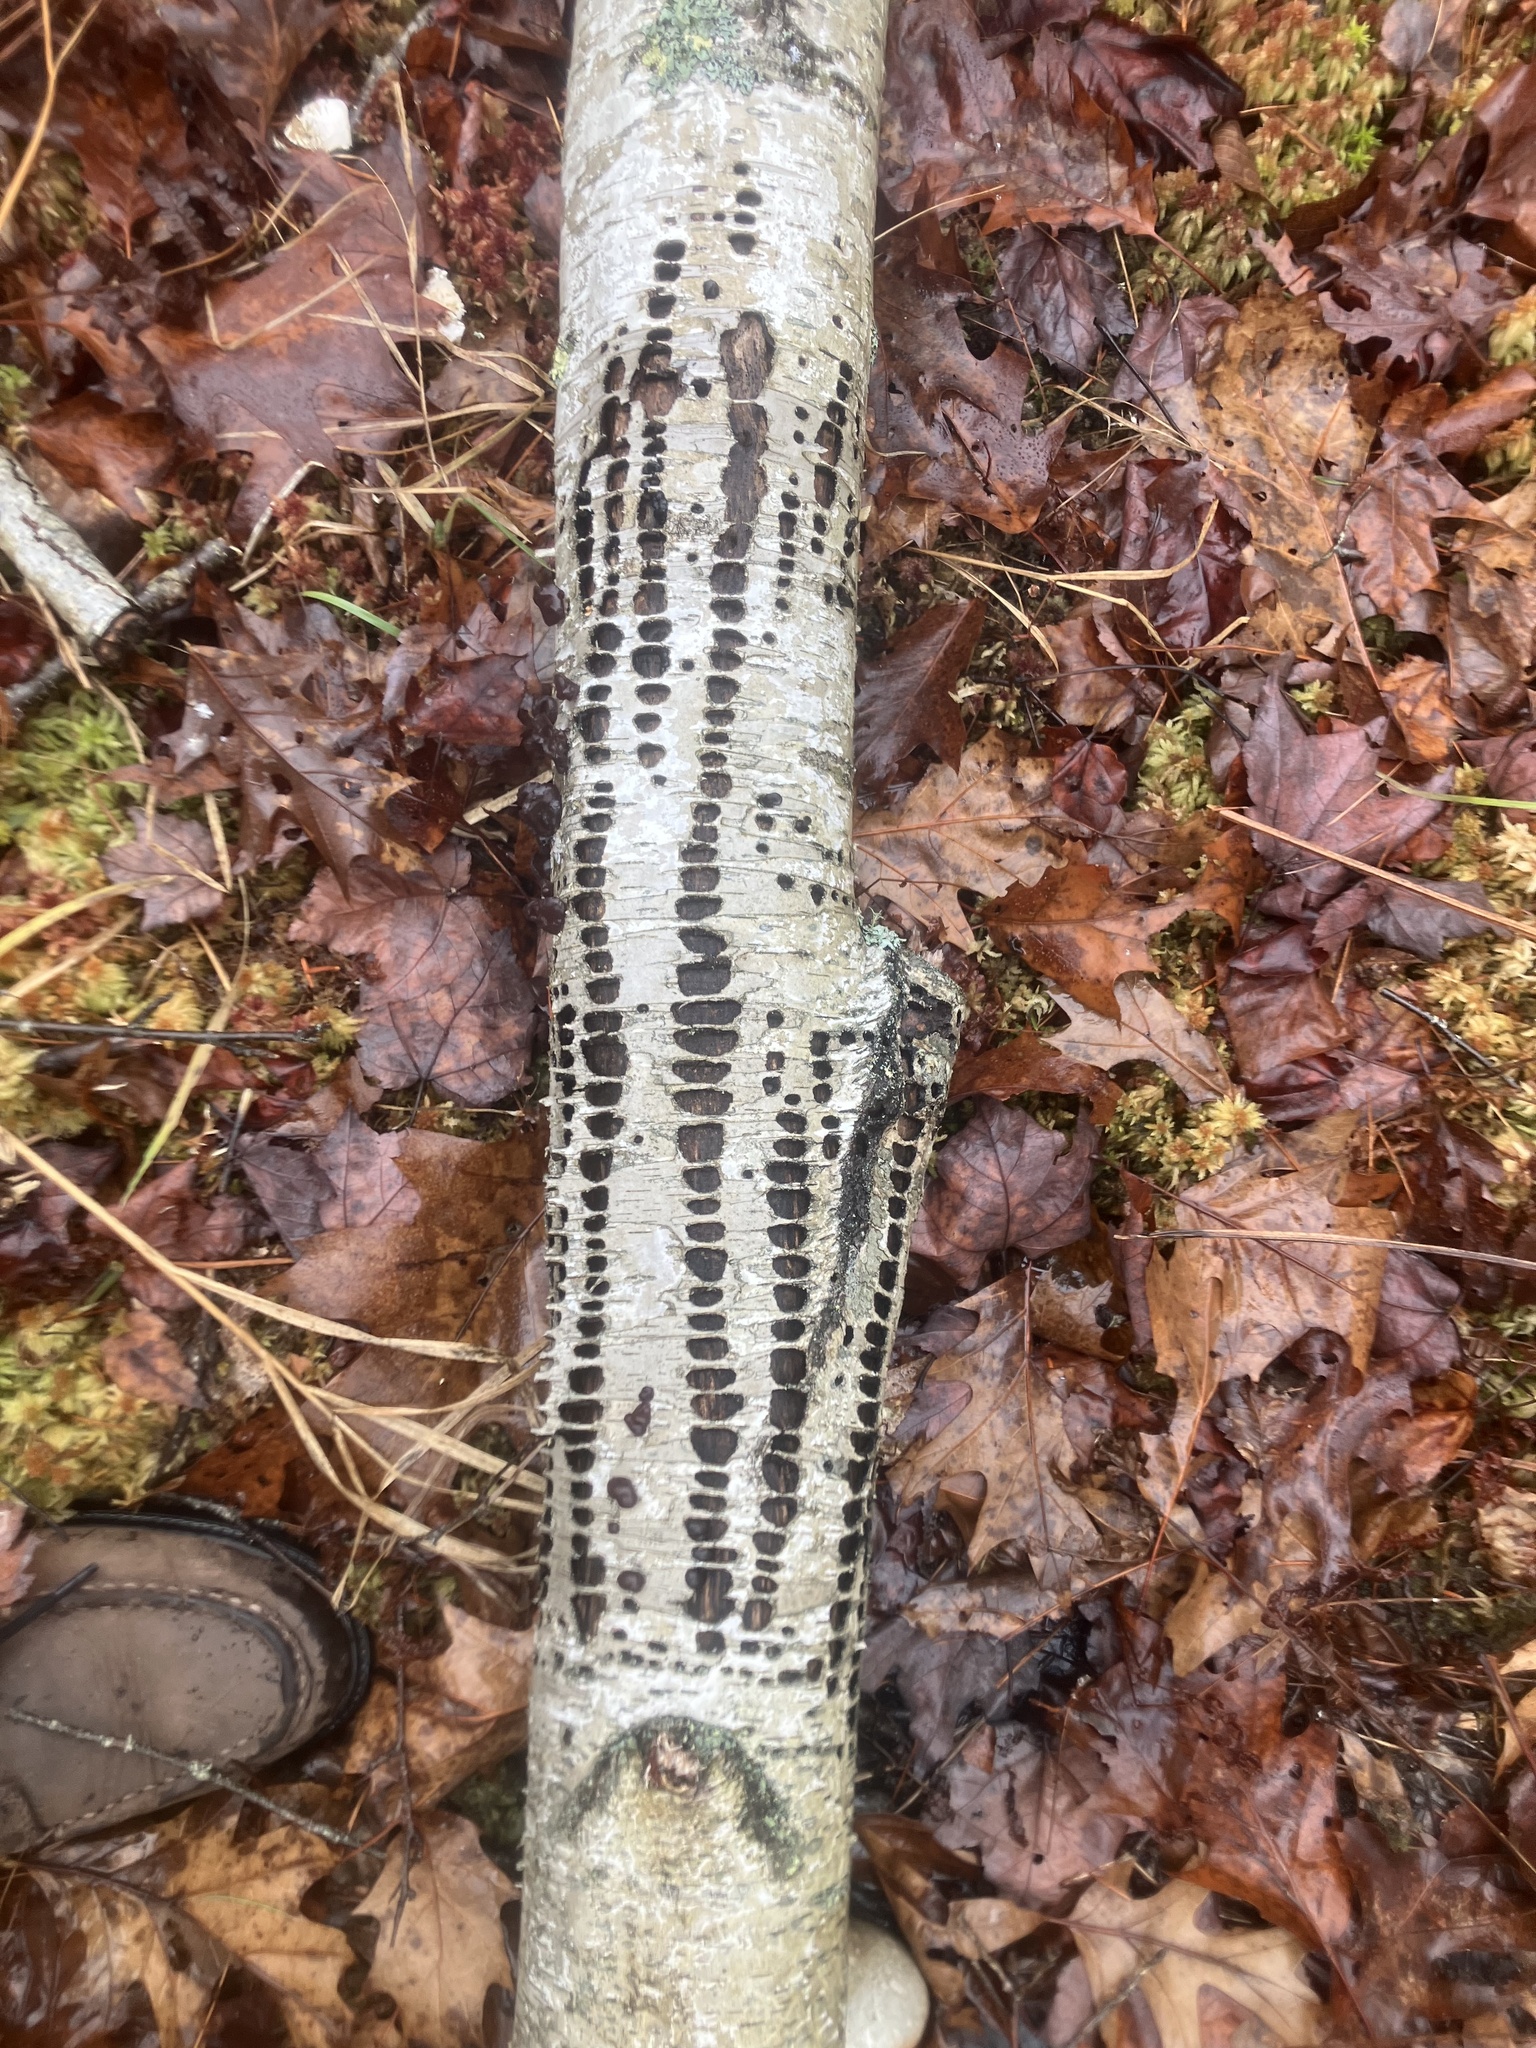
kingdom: Animalia
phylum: Chordata
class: Aves
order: Piciformes
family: Picidae
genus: Sphyrapicus
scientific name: Sphyrapicus varius
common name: Yellow-bellied sapsucker
